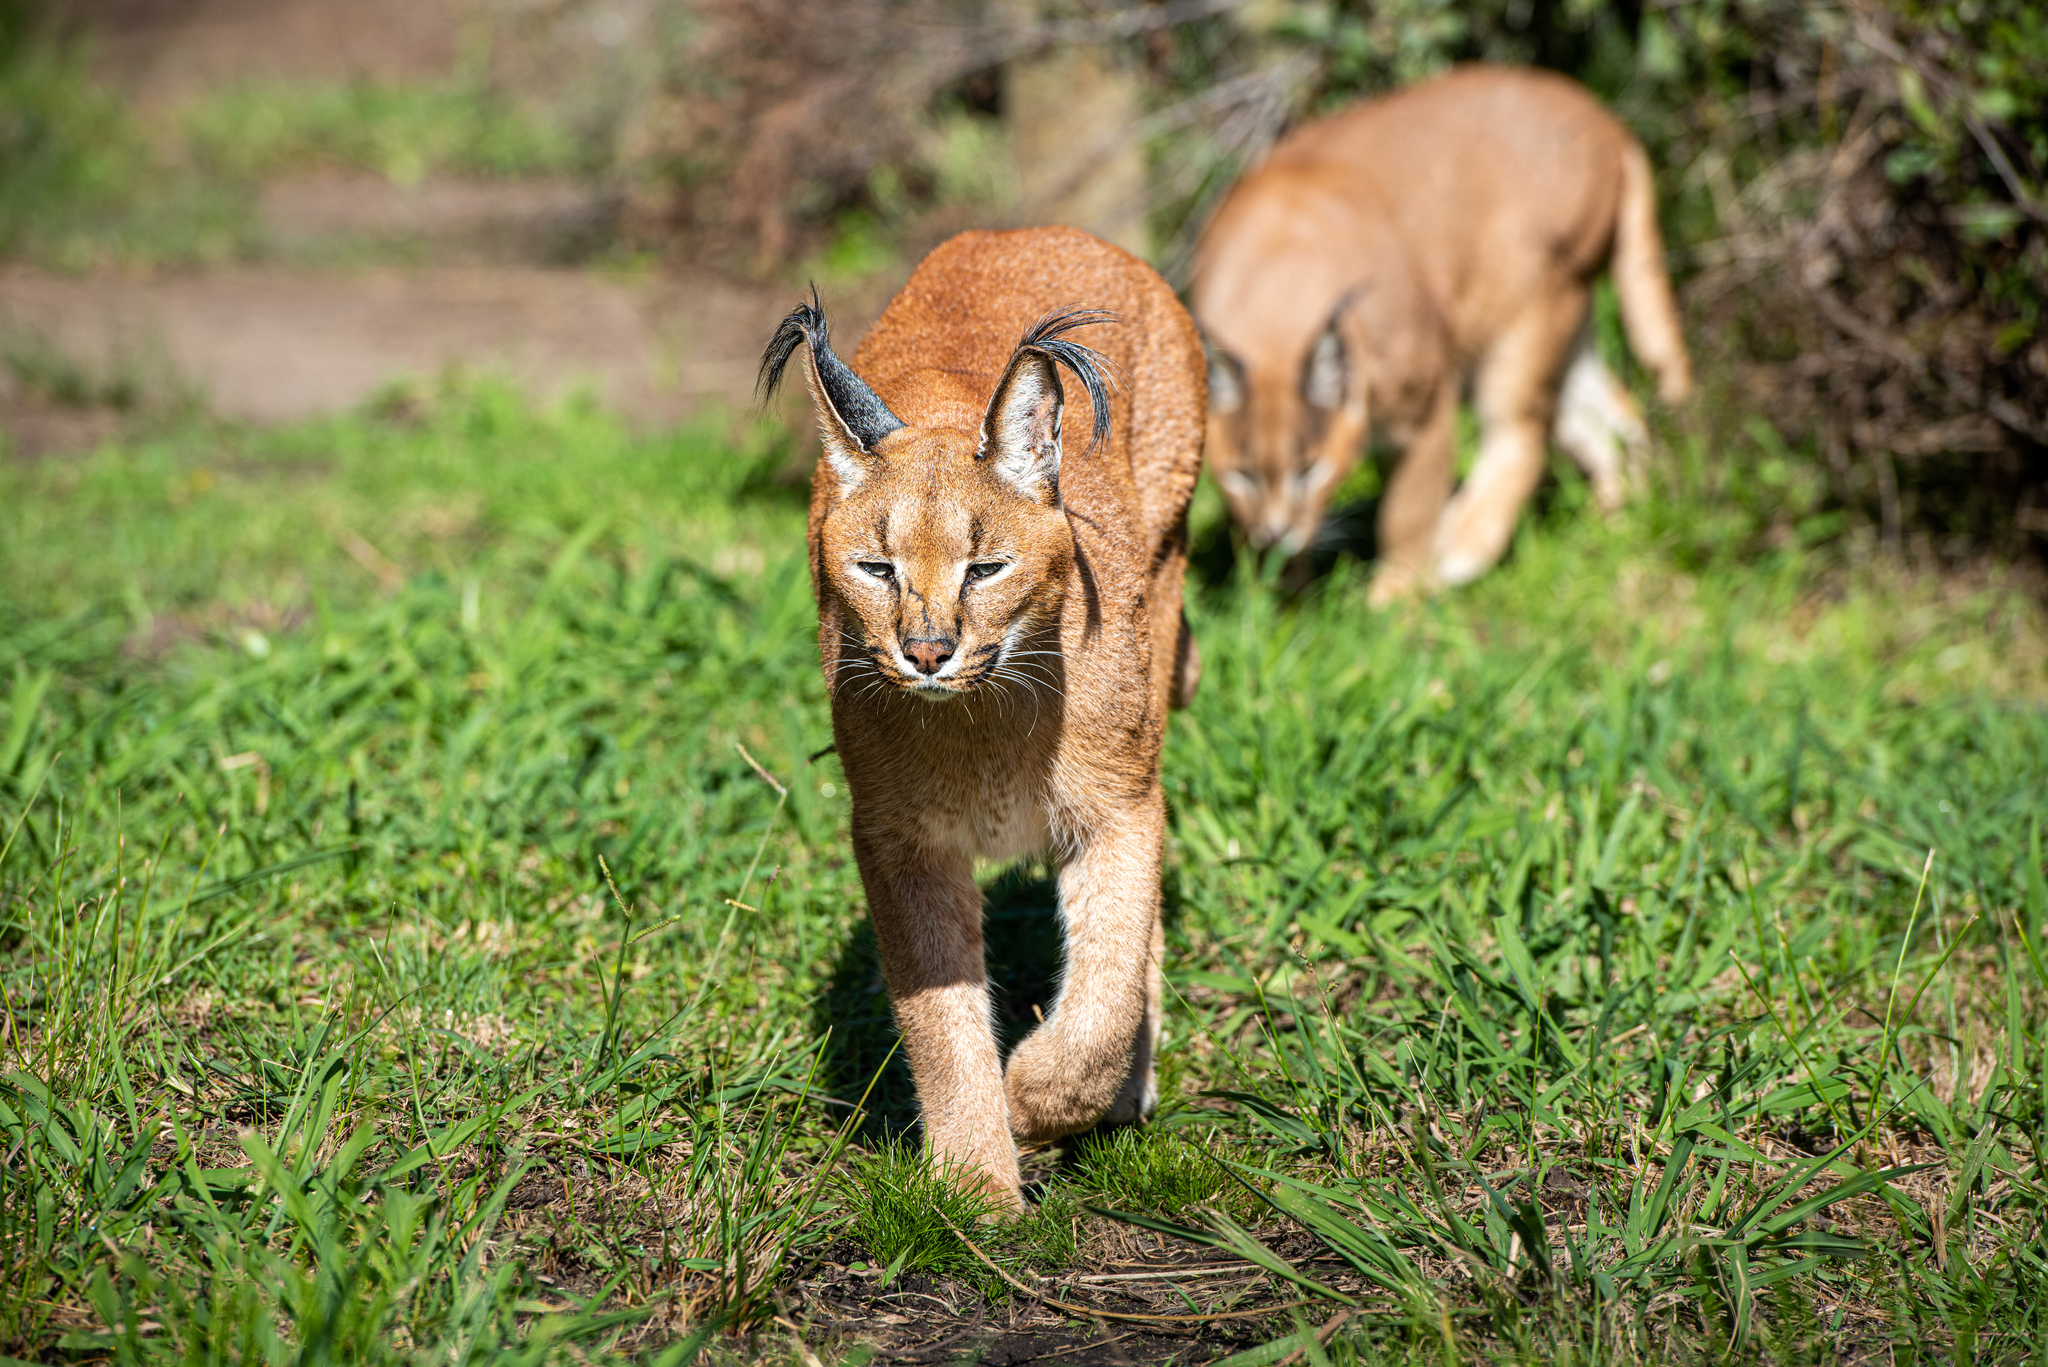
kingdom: Animalia
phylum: Chordata
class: Mammalia
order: Carnivora
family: Felidae
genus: Caracal
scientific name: Caracal caracal
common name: Caracal
